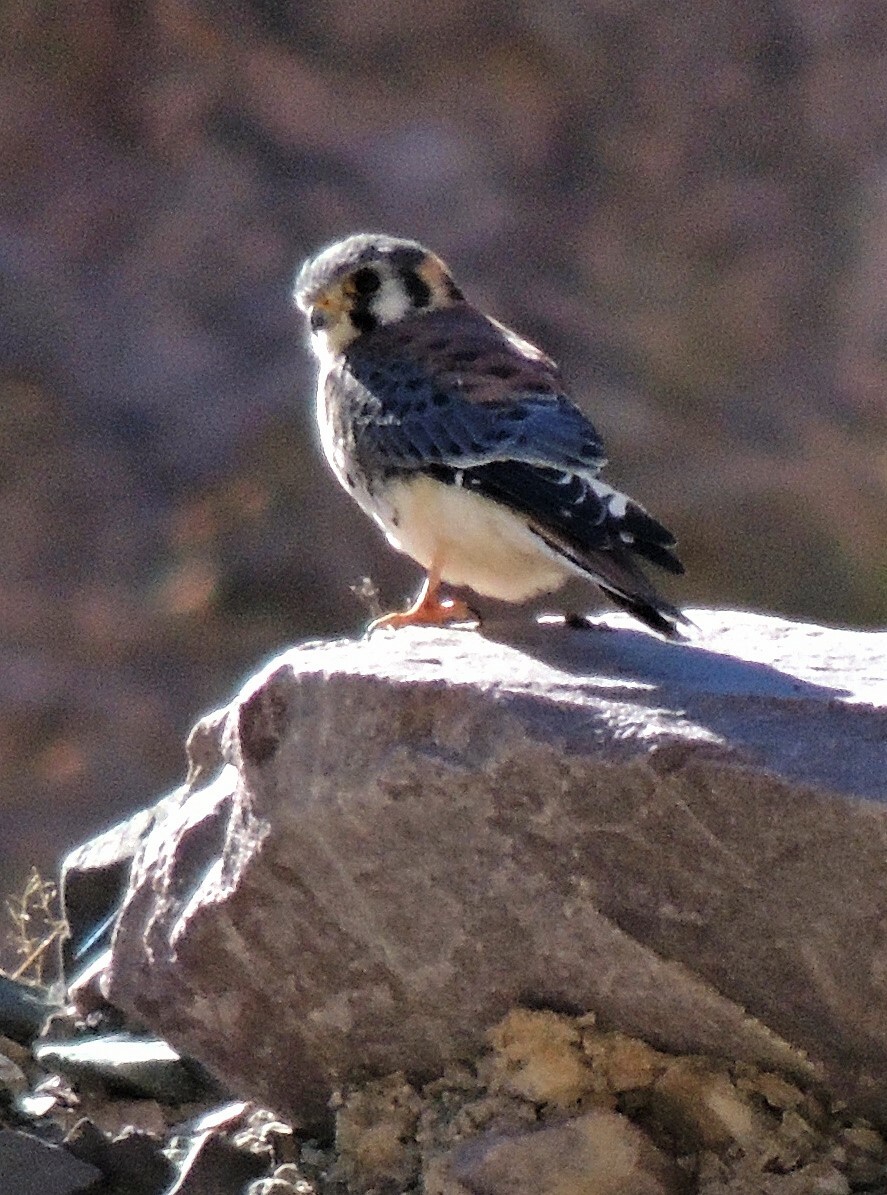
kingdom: Animalia
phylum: Chordata
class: Aves
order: Falconiformes
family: Falconidae
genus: Falco
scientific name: Falco sparverius
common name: American kestrel
